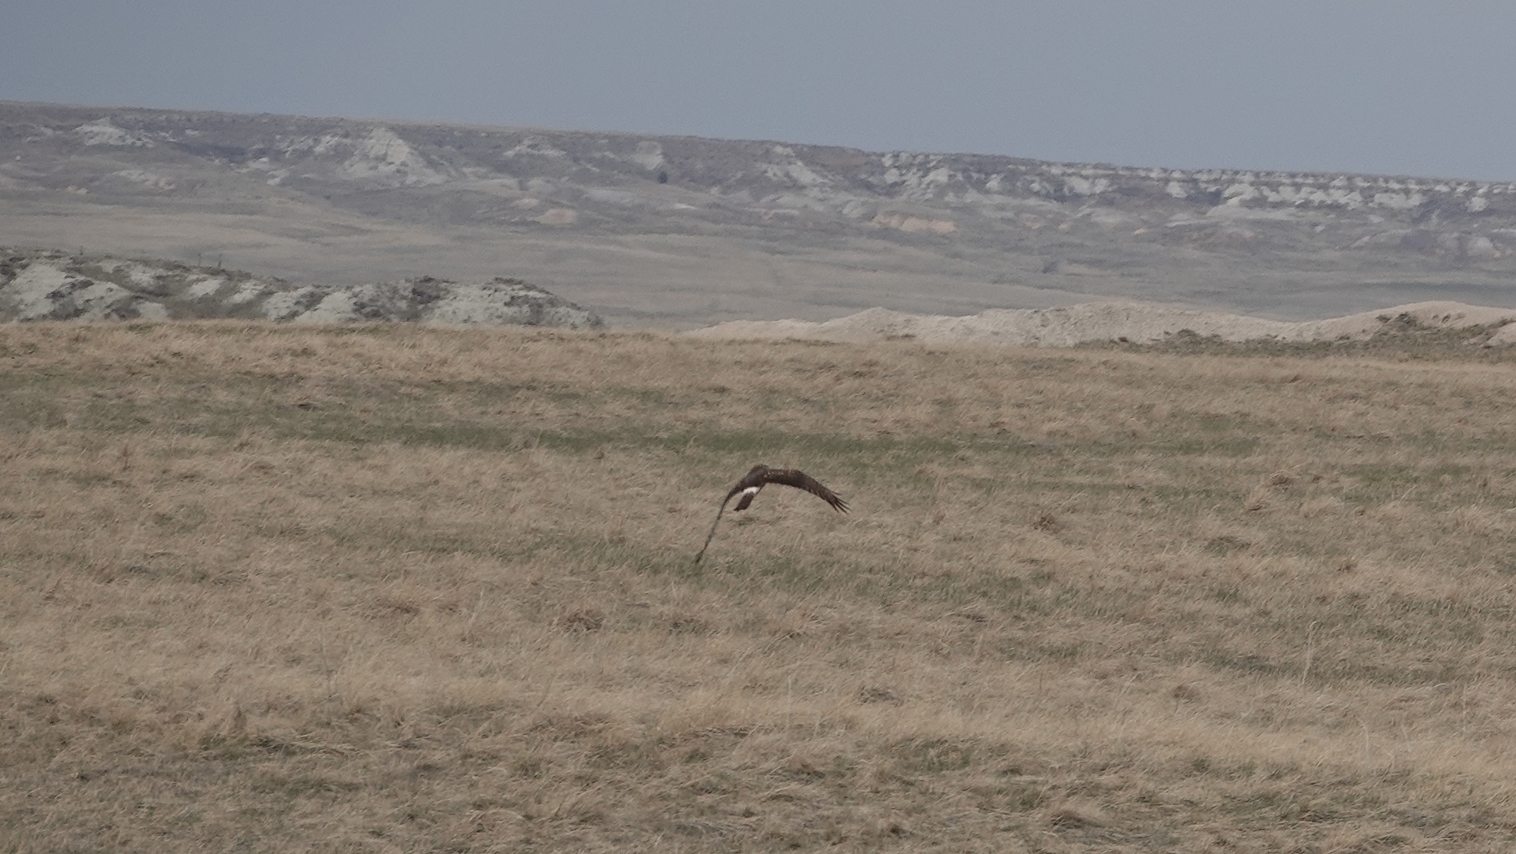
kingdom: Animalia
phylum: Chordata
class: Aves
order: Accipitriformes
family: Accipitridae
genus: Circus
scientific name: Circus cyaneus
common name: Hen harrier
